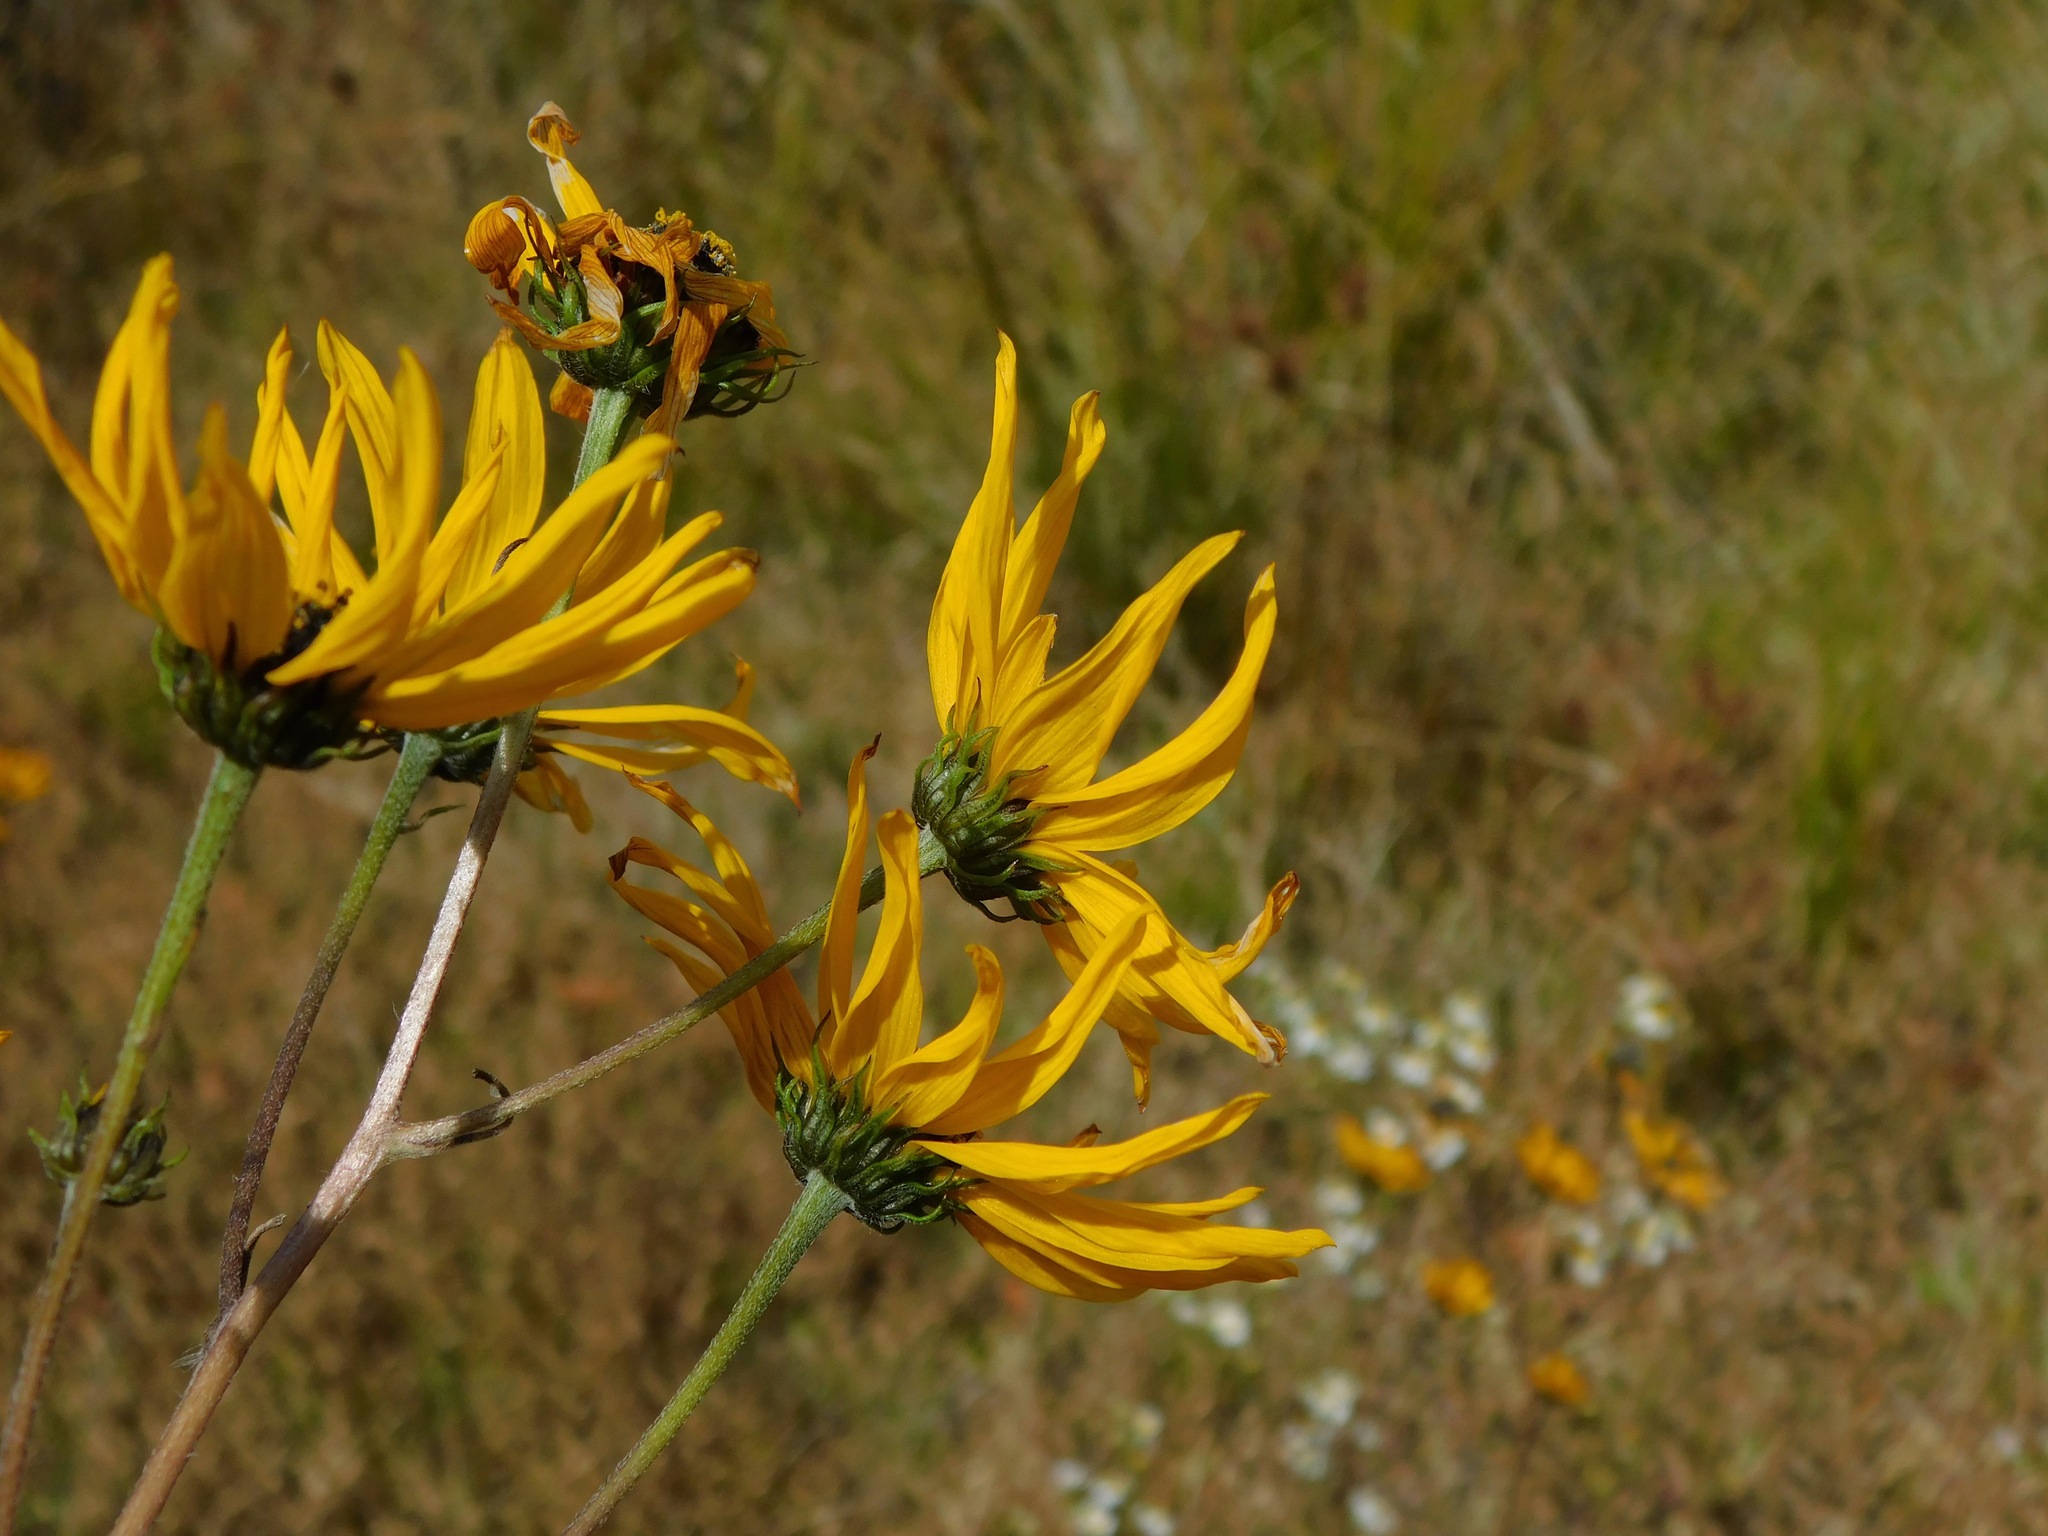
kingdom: Plantae
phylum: Tracheophyta
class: Magnoliopsida
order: Asterales
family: Asteraceae
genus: Helianthus
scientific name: Helianthus angustifolius
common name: Swamp sunflower
